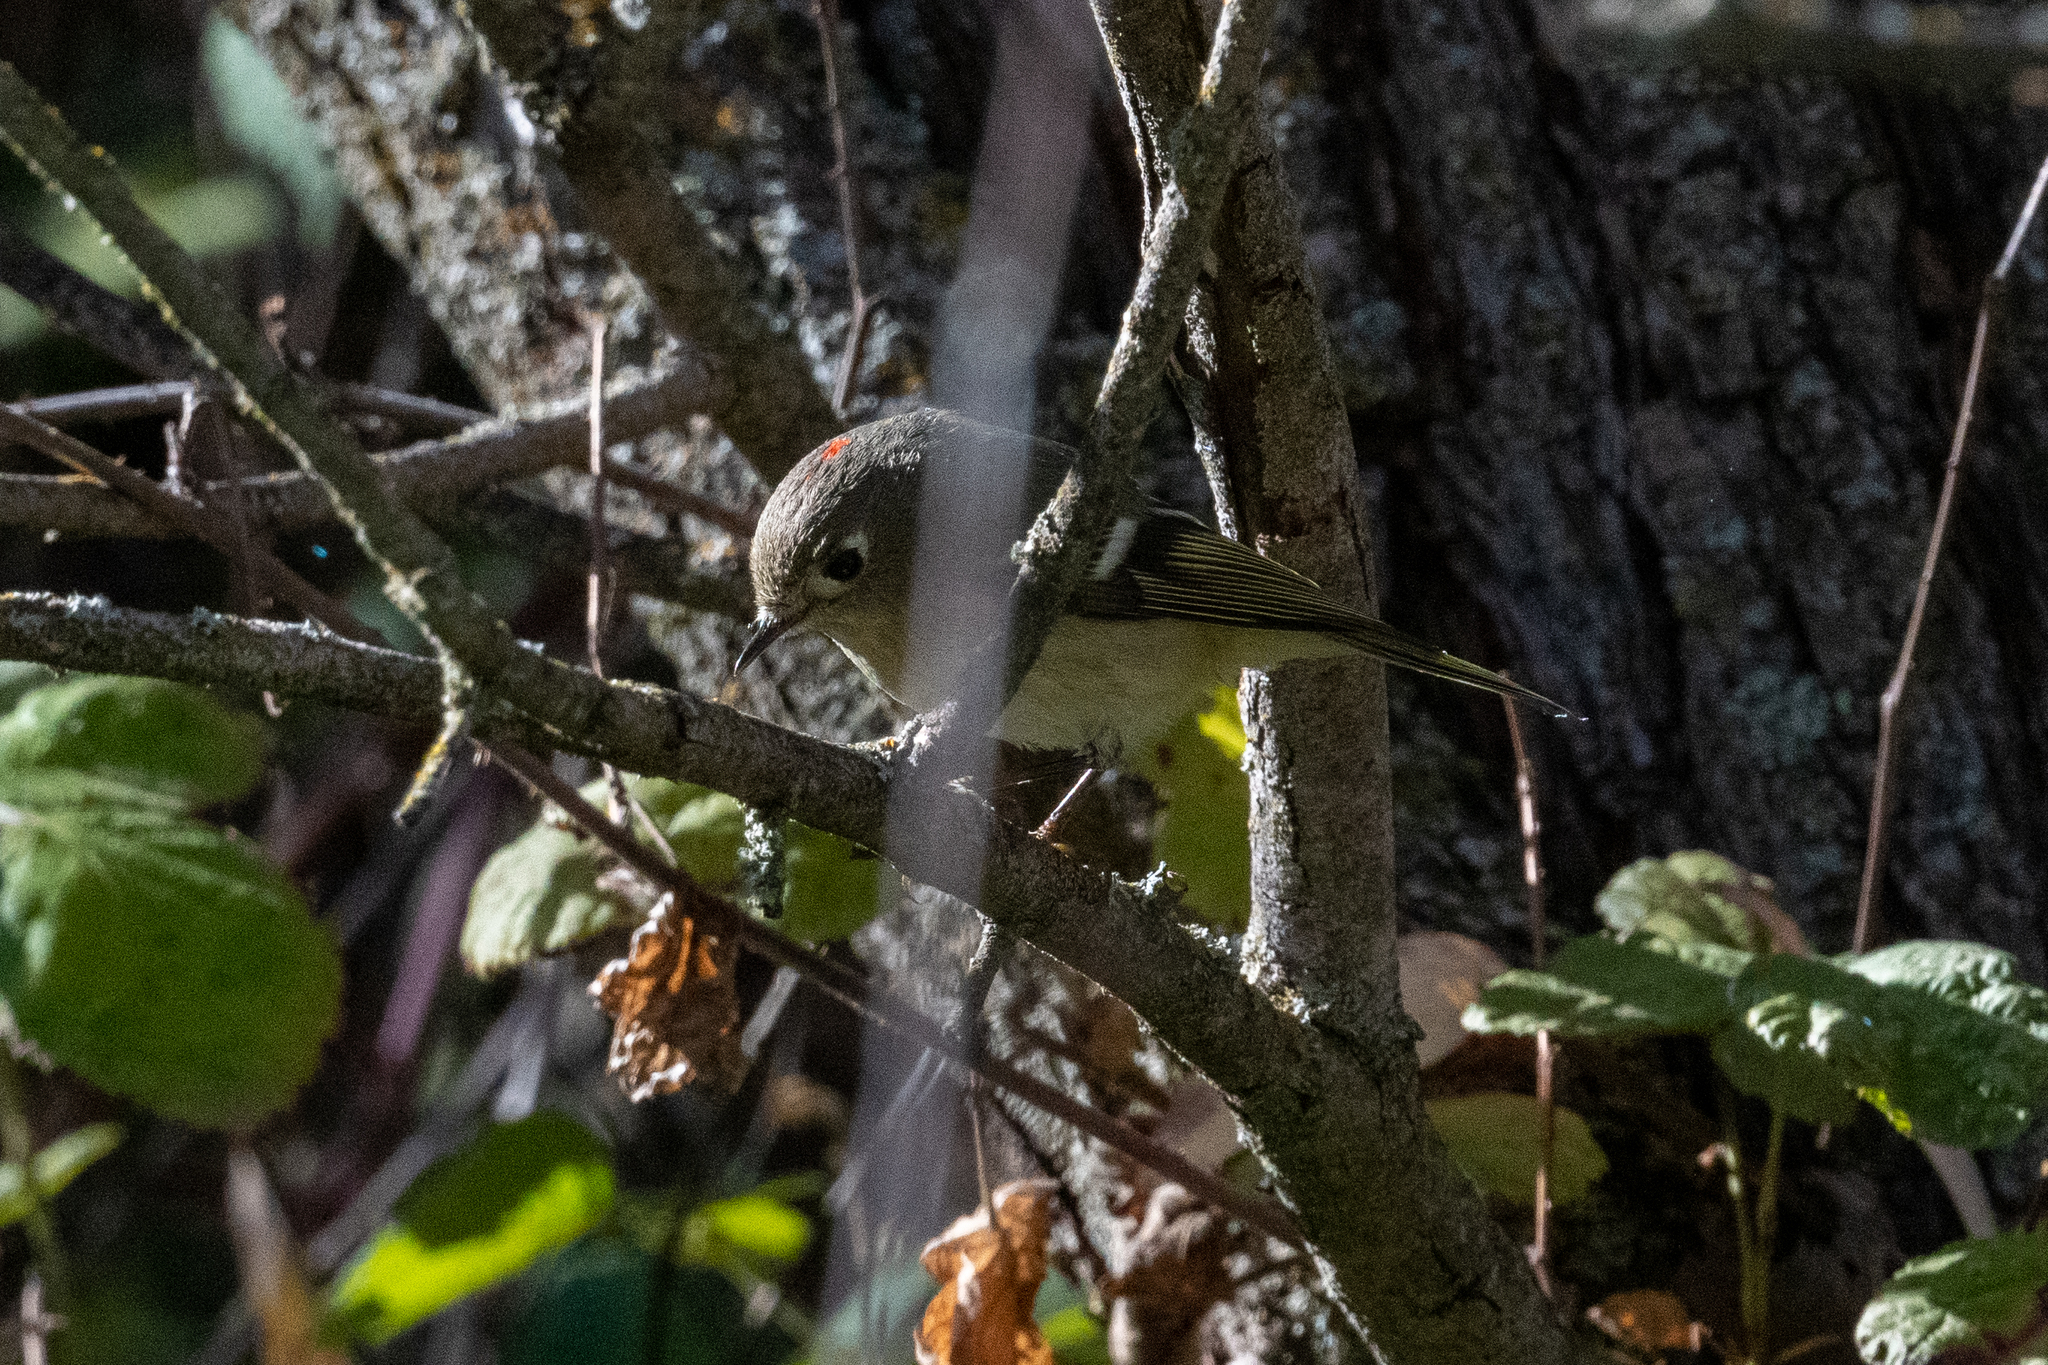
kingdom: Animalia
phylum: Chordata
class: Aves
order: Passeriformes
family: Regulidae
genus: Regulus
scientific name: Regulus calendula
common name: Ruby-crowned kinglet
